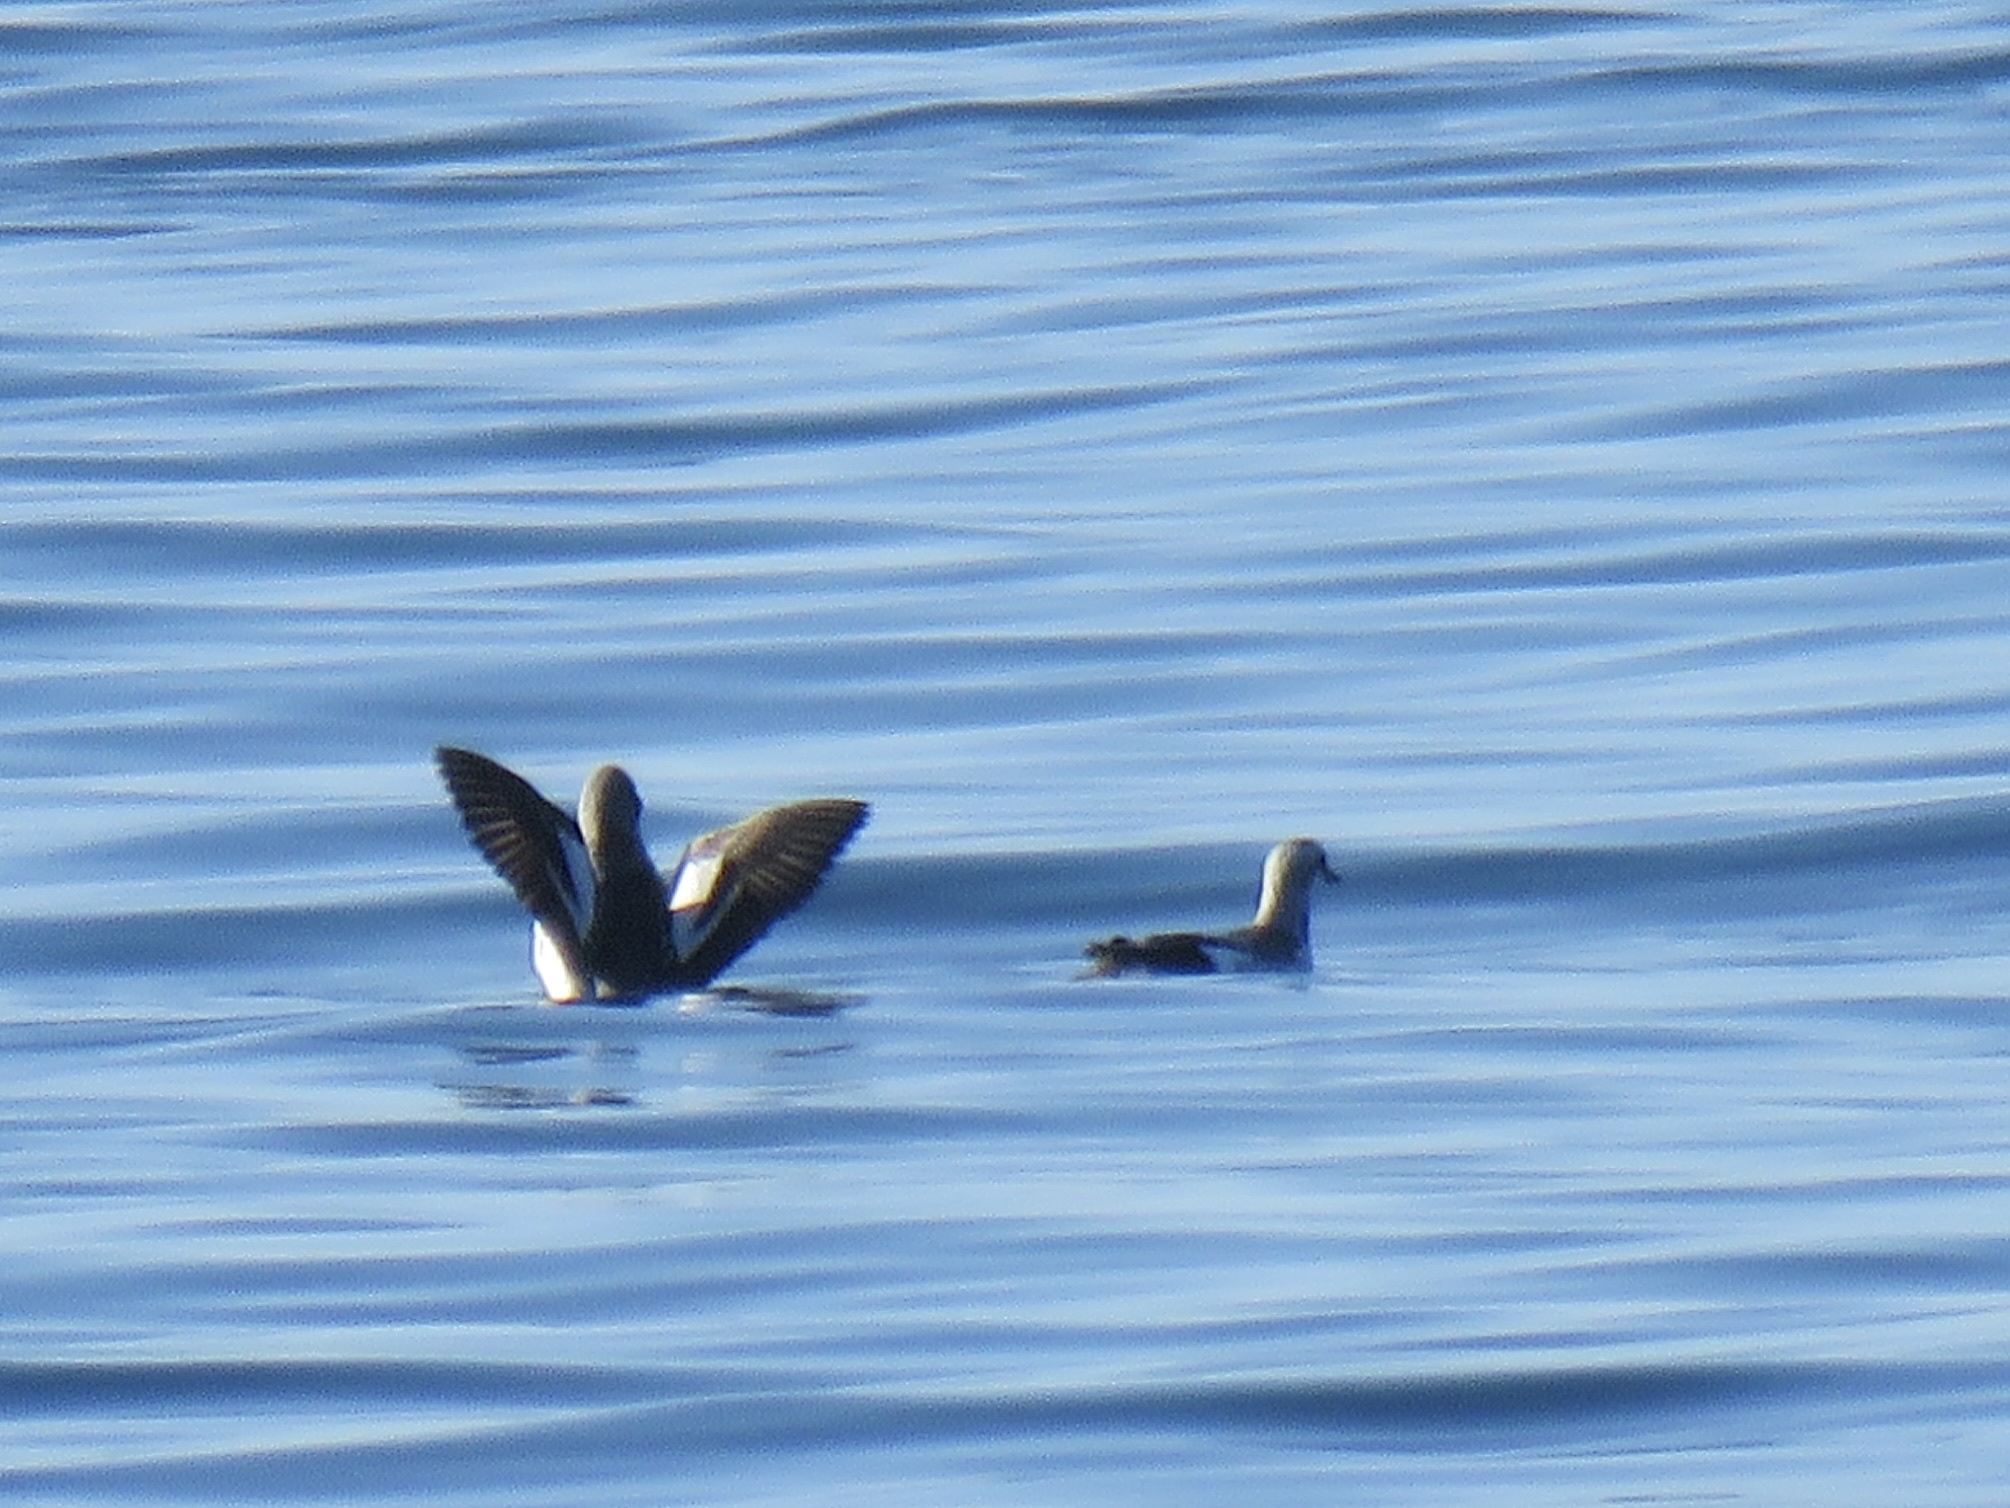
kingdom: Animalia
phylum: Chordata
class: Aves
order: Charadriiformes
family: Alcidae
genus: Cepphus
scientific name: Cepphus columba
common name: Pigeon guillemot
